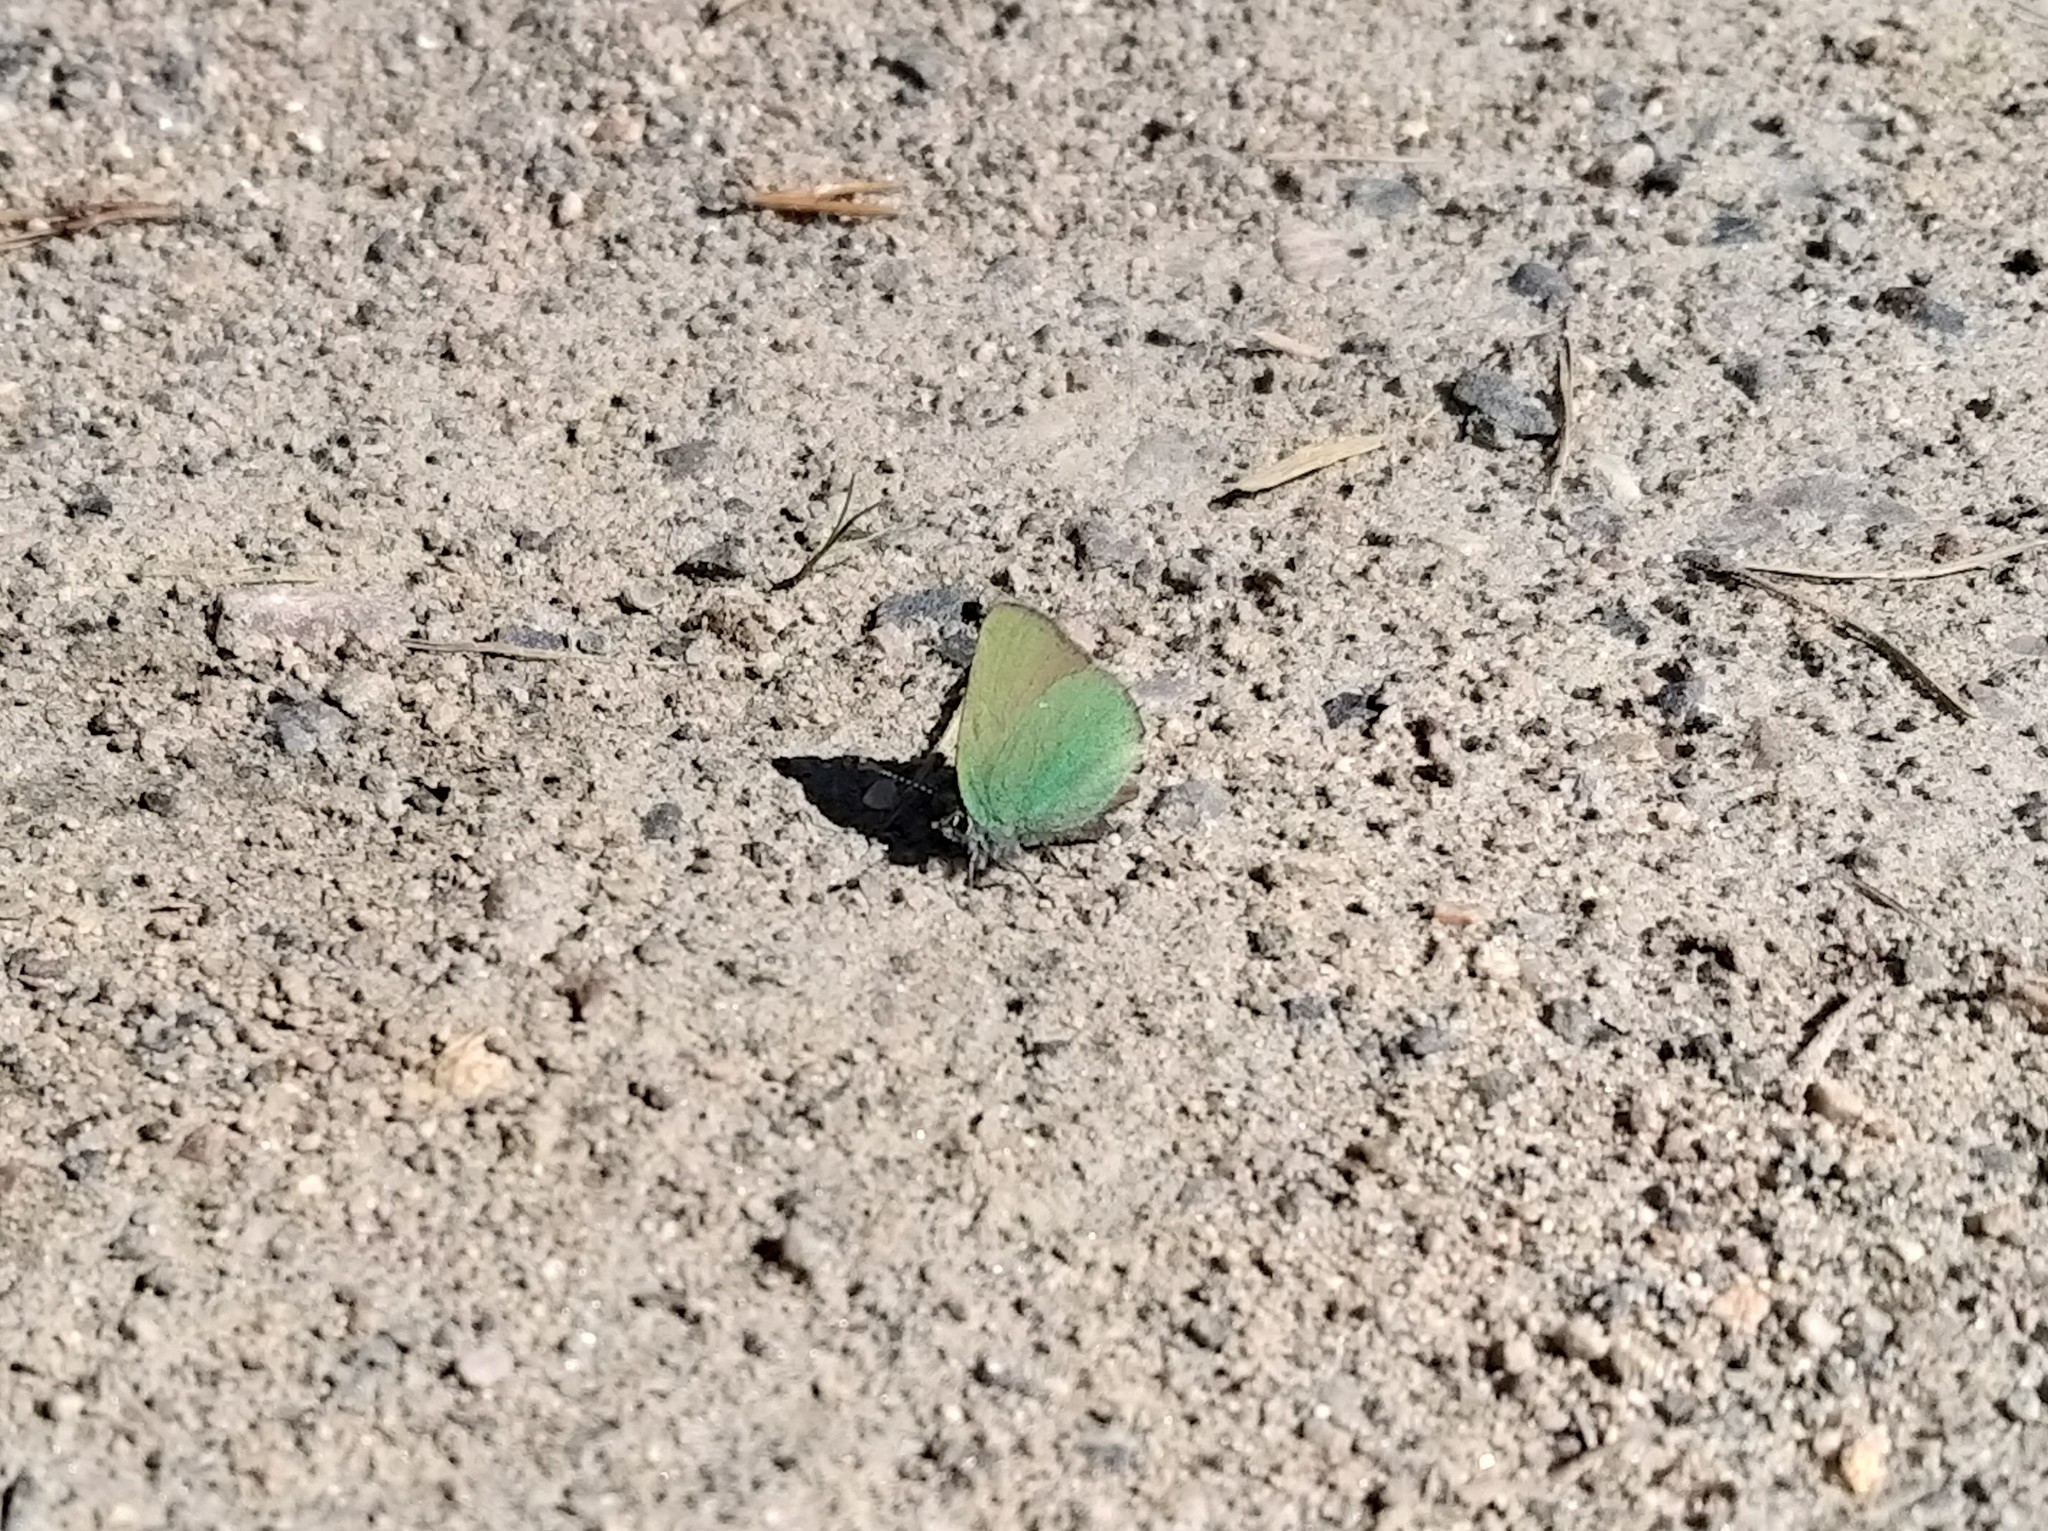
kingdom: Animalia
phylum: Arthropoda
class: Insecta
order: Lepidoptera
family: Lycaenidae
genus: Callophrys
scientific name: Callophrys rubi
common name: Green hairstreak
